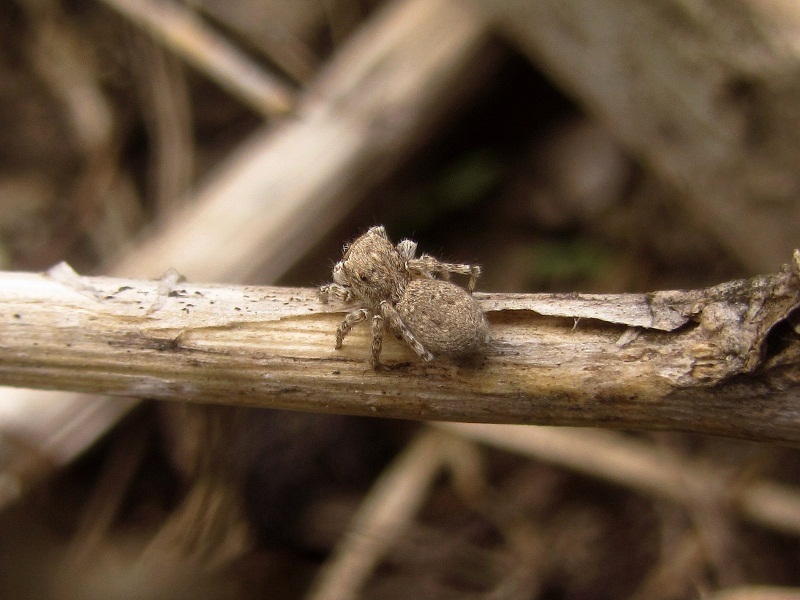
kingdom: Animalia
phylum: Arthropoda
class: Arachnida
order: Araneae
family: Salticidae
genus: Attulus
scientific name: Attulus distinguendus
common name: Distinguished jumper
